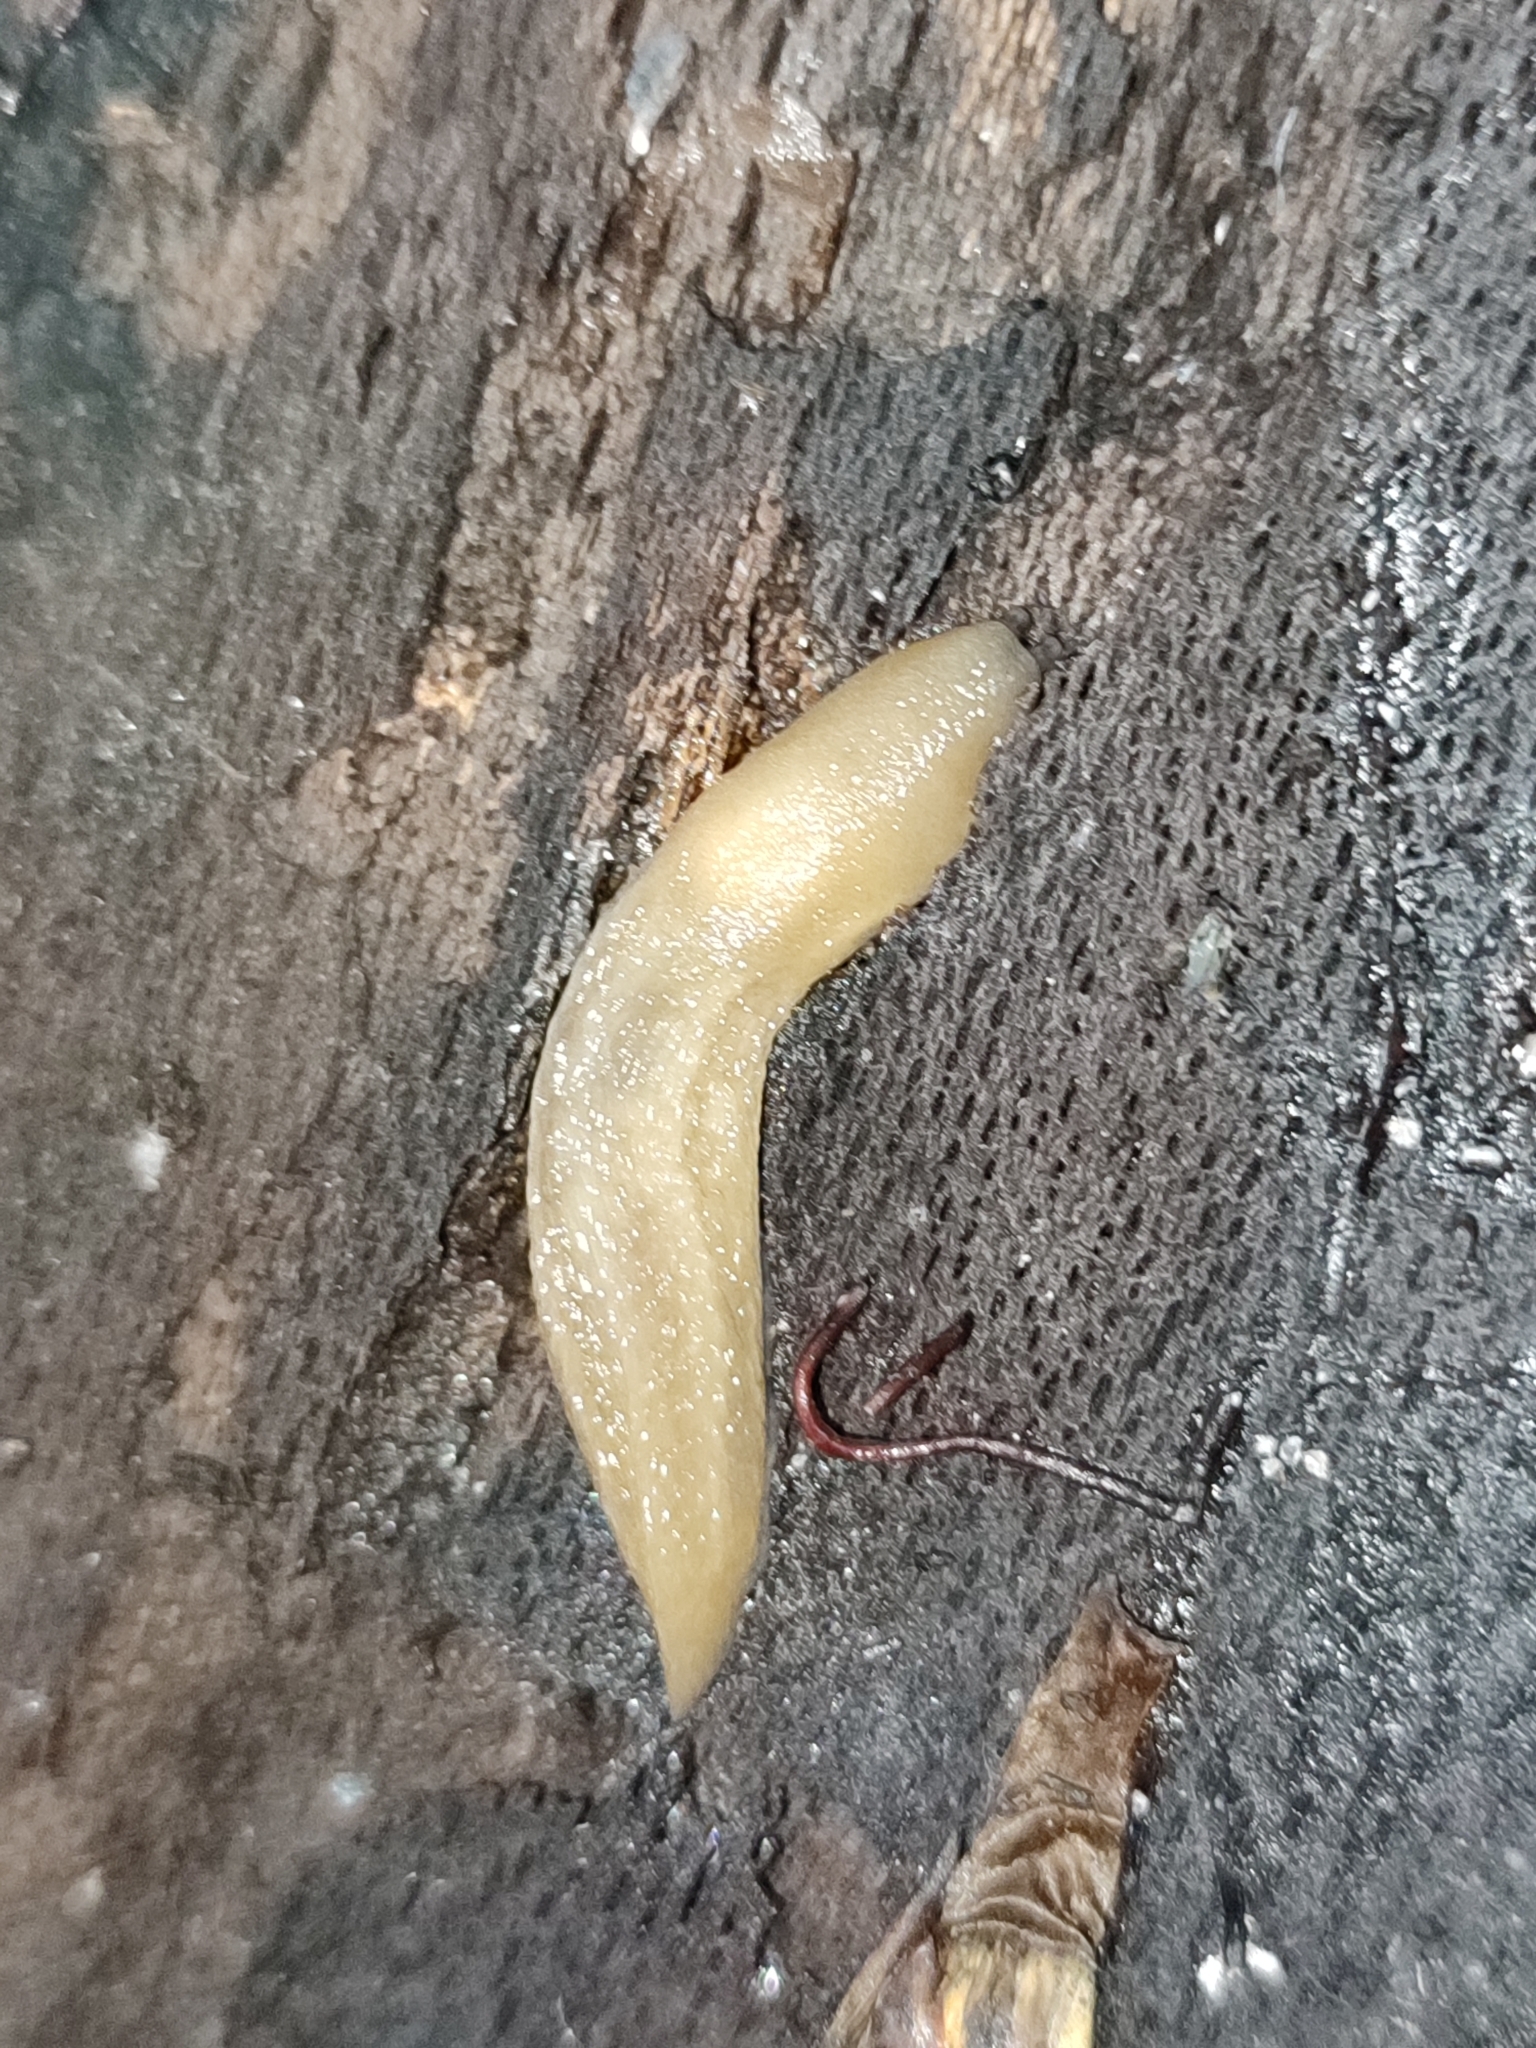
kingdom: Animalia
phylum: Mollusca
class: Gastropoda
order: Stylommatophora
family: Limacidae
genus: Bielzia
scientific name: Bielzia coerulans
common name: Carpathian blue slug
